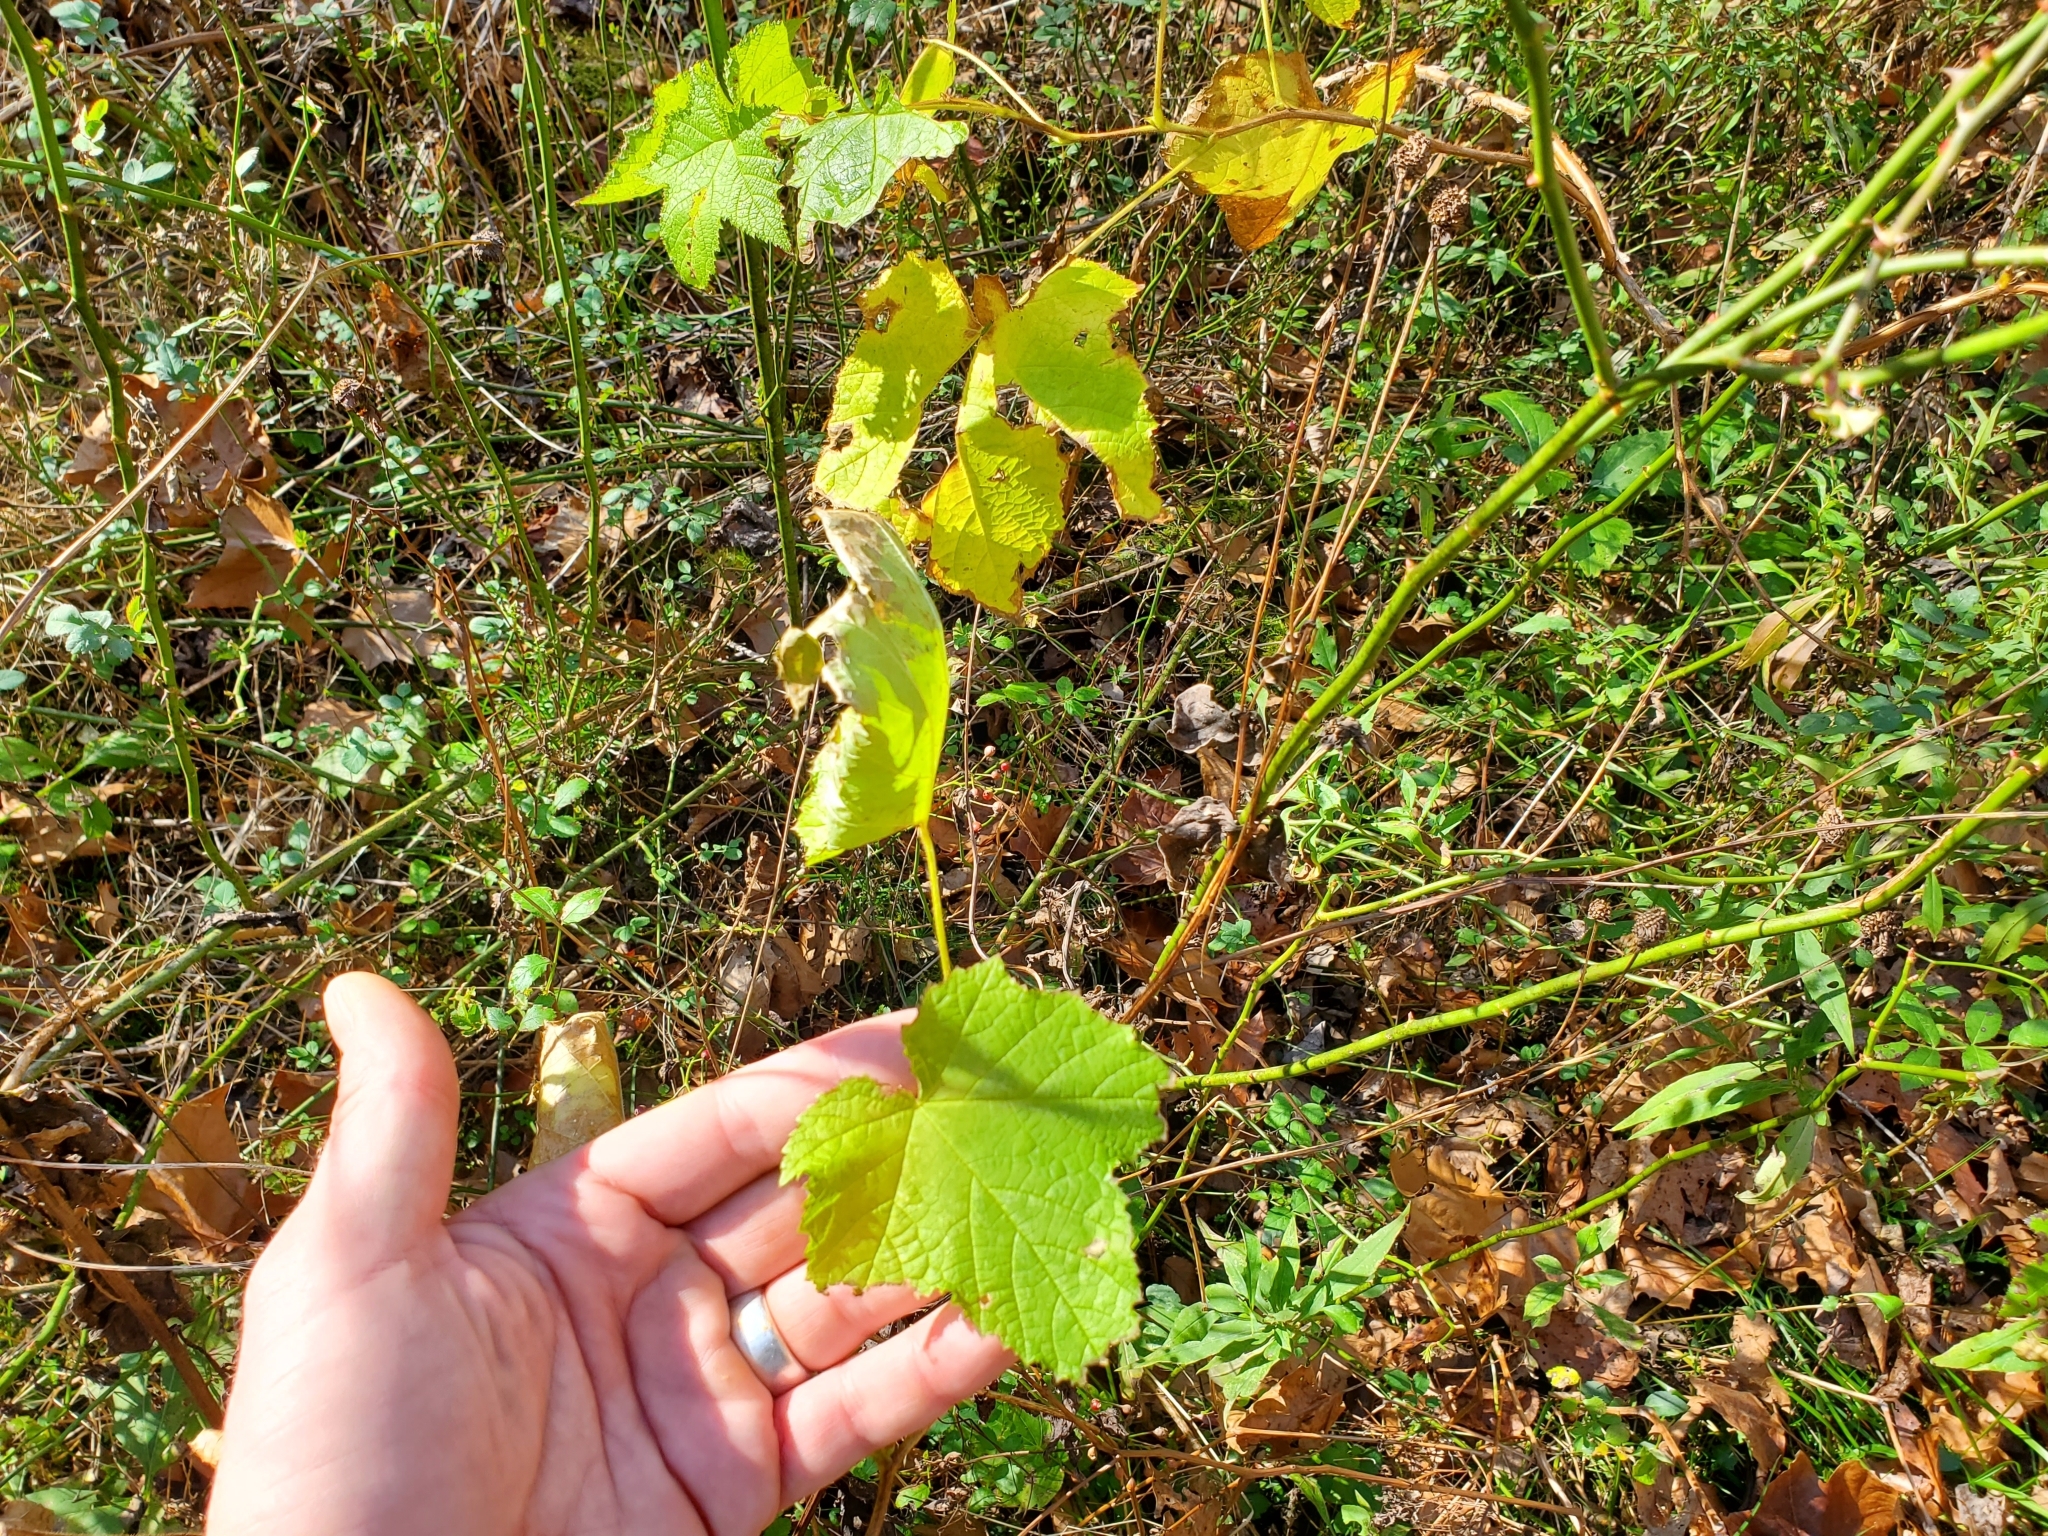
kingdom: Plantae
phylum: Tracheophyta
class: Magnoliopsida
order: Rosales
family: Rosaceae
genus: Rubus
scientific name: Rubus odoratus
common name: Purple-flowered raspberry
